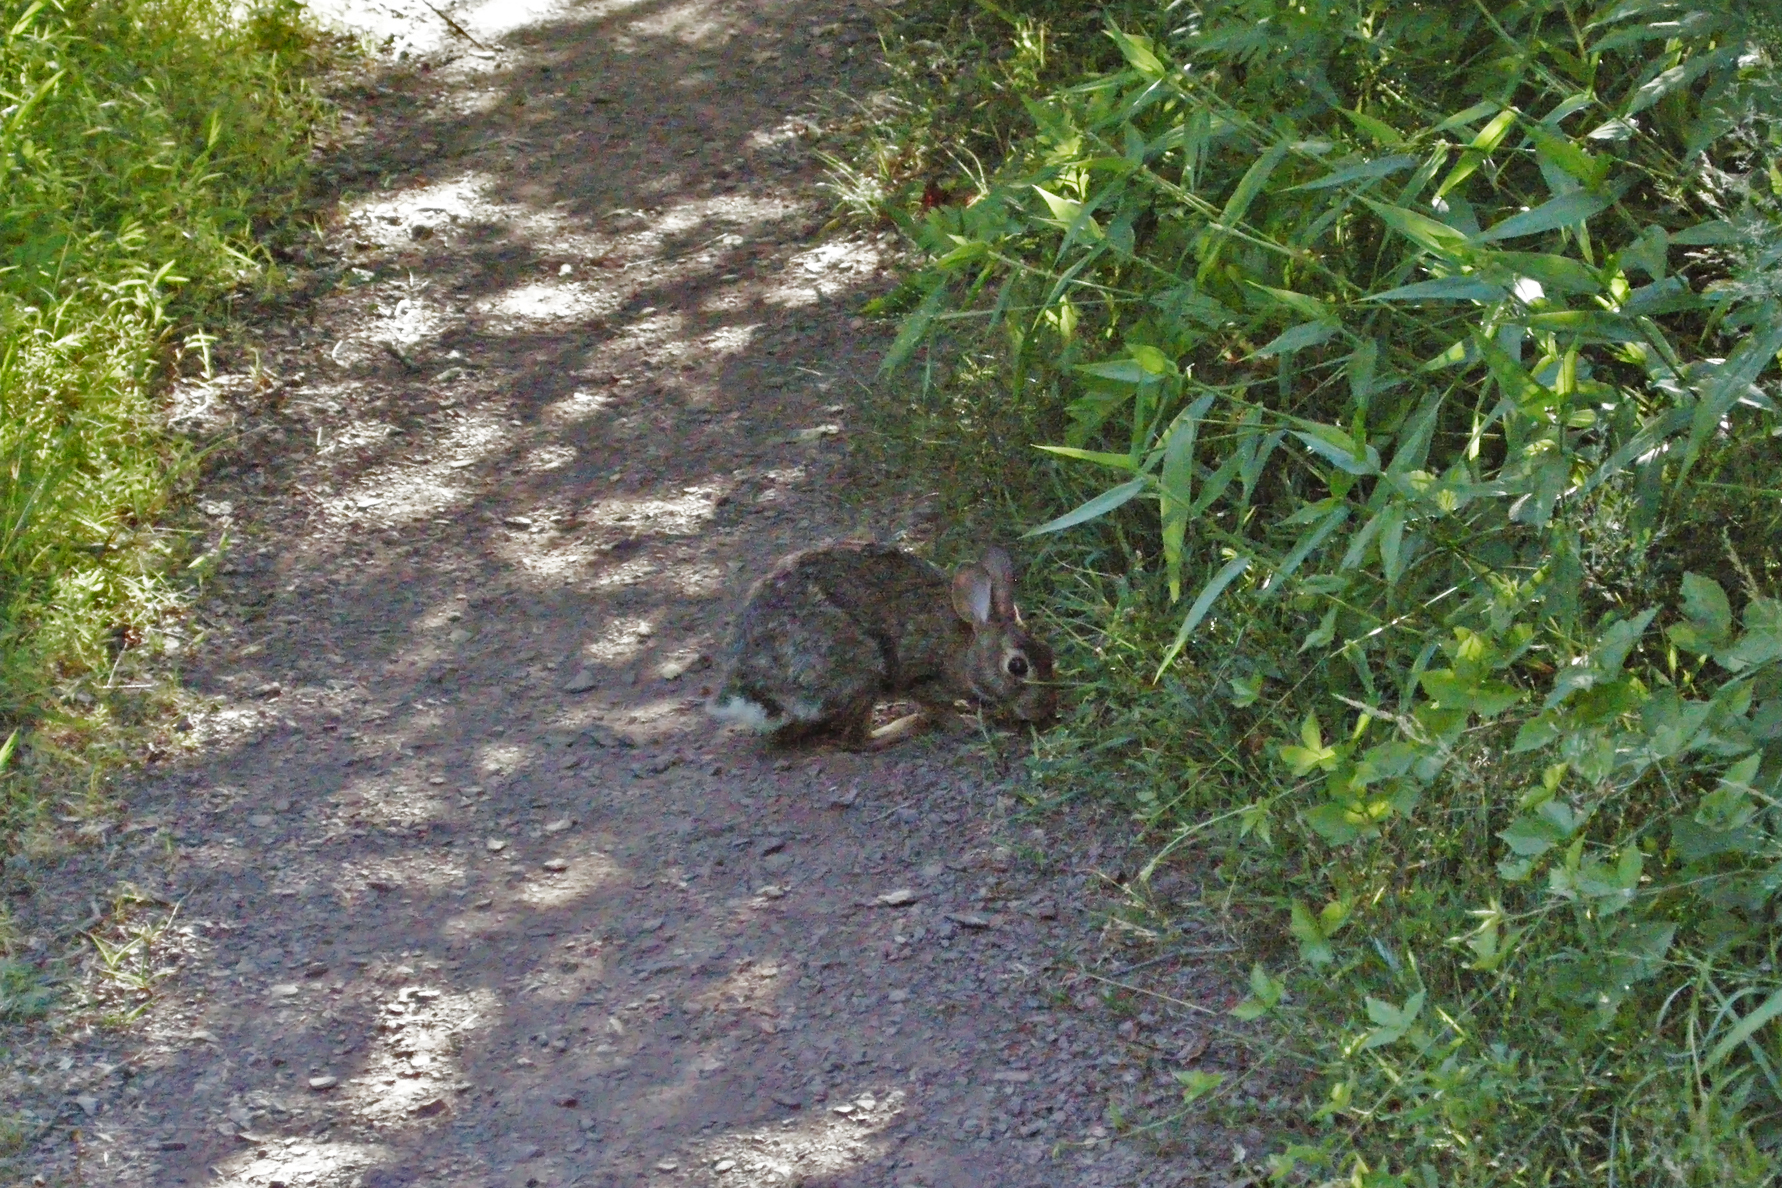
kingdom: Animalia
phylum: Chordata
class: Mammalia
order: Lagomorpha
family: Leporidae
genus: Sylvilagus
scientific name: Sylvilagus floridanus
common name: Eastern cottontail
